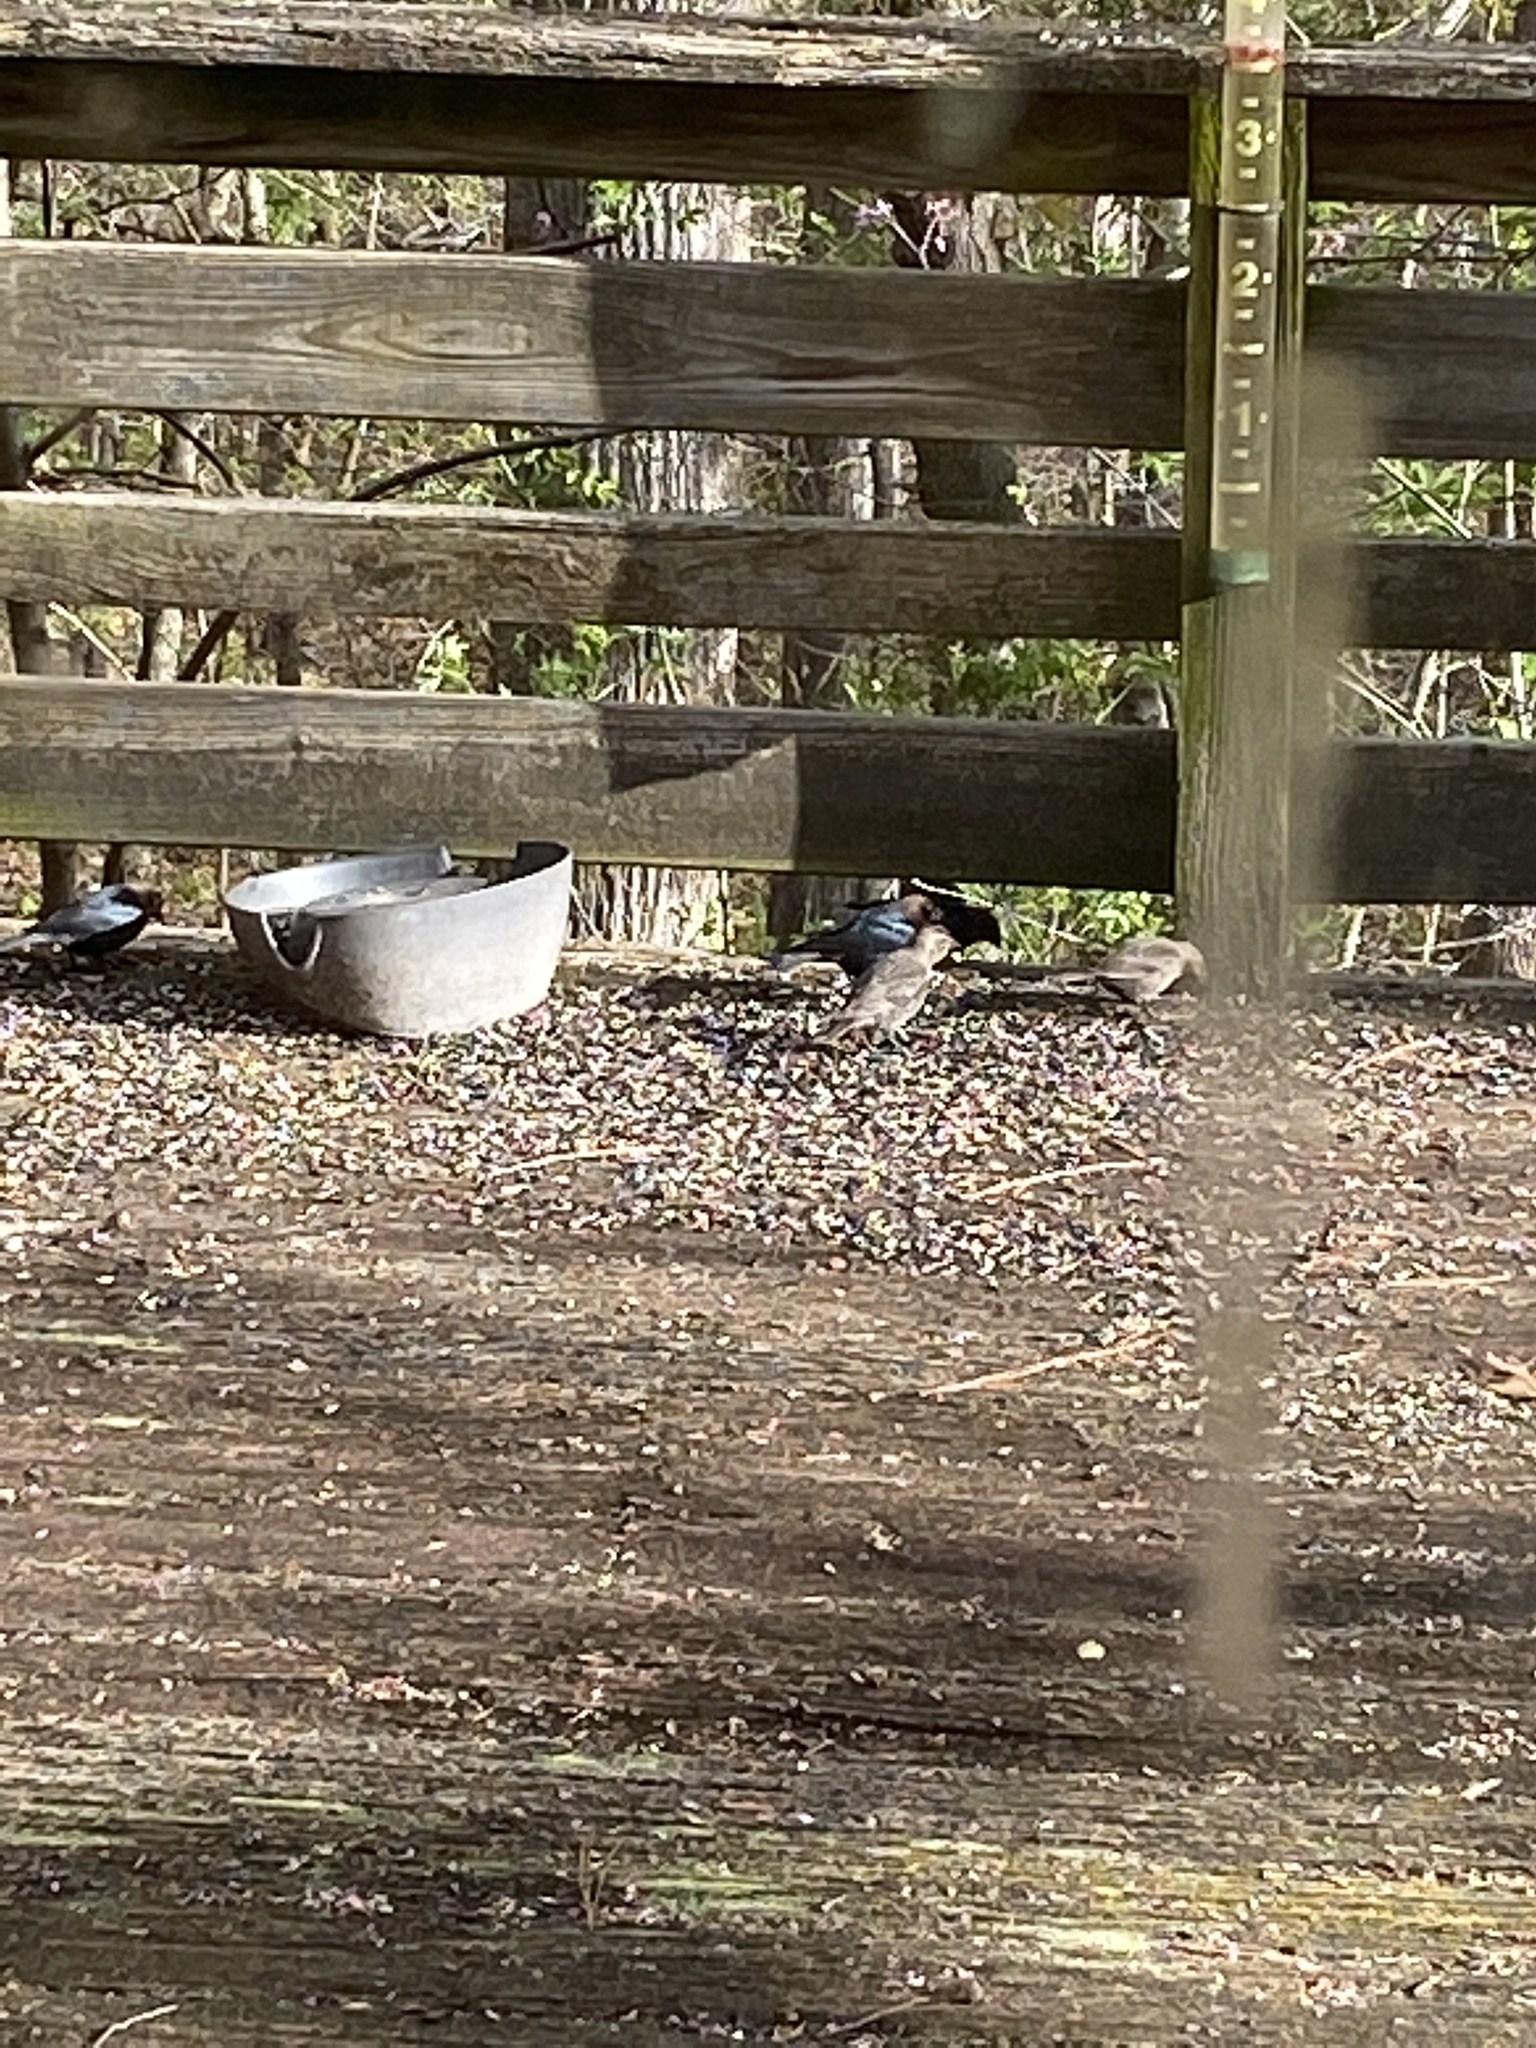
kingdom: Animalia
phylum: Chordata
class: Aves
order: Passeriformes
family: Icteridae
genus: Molothrus
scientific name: Molothrus ater
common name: Brown-headed cowbird
